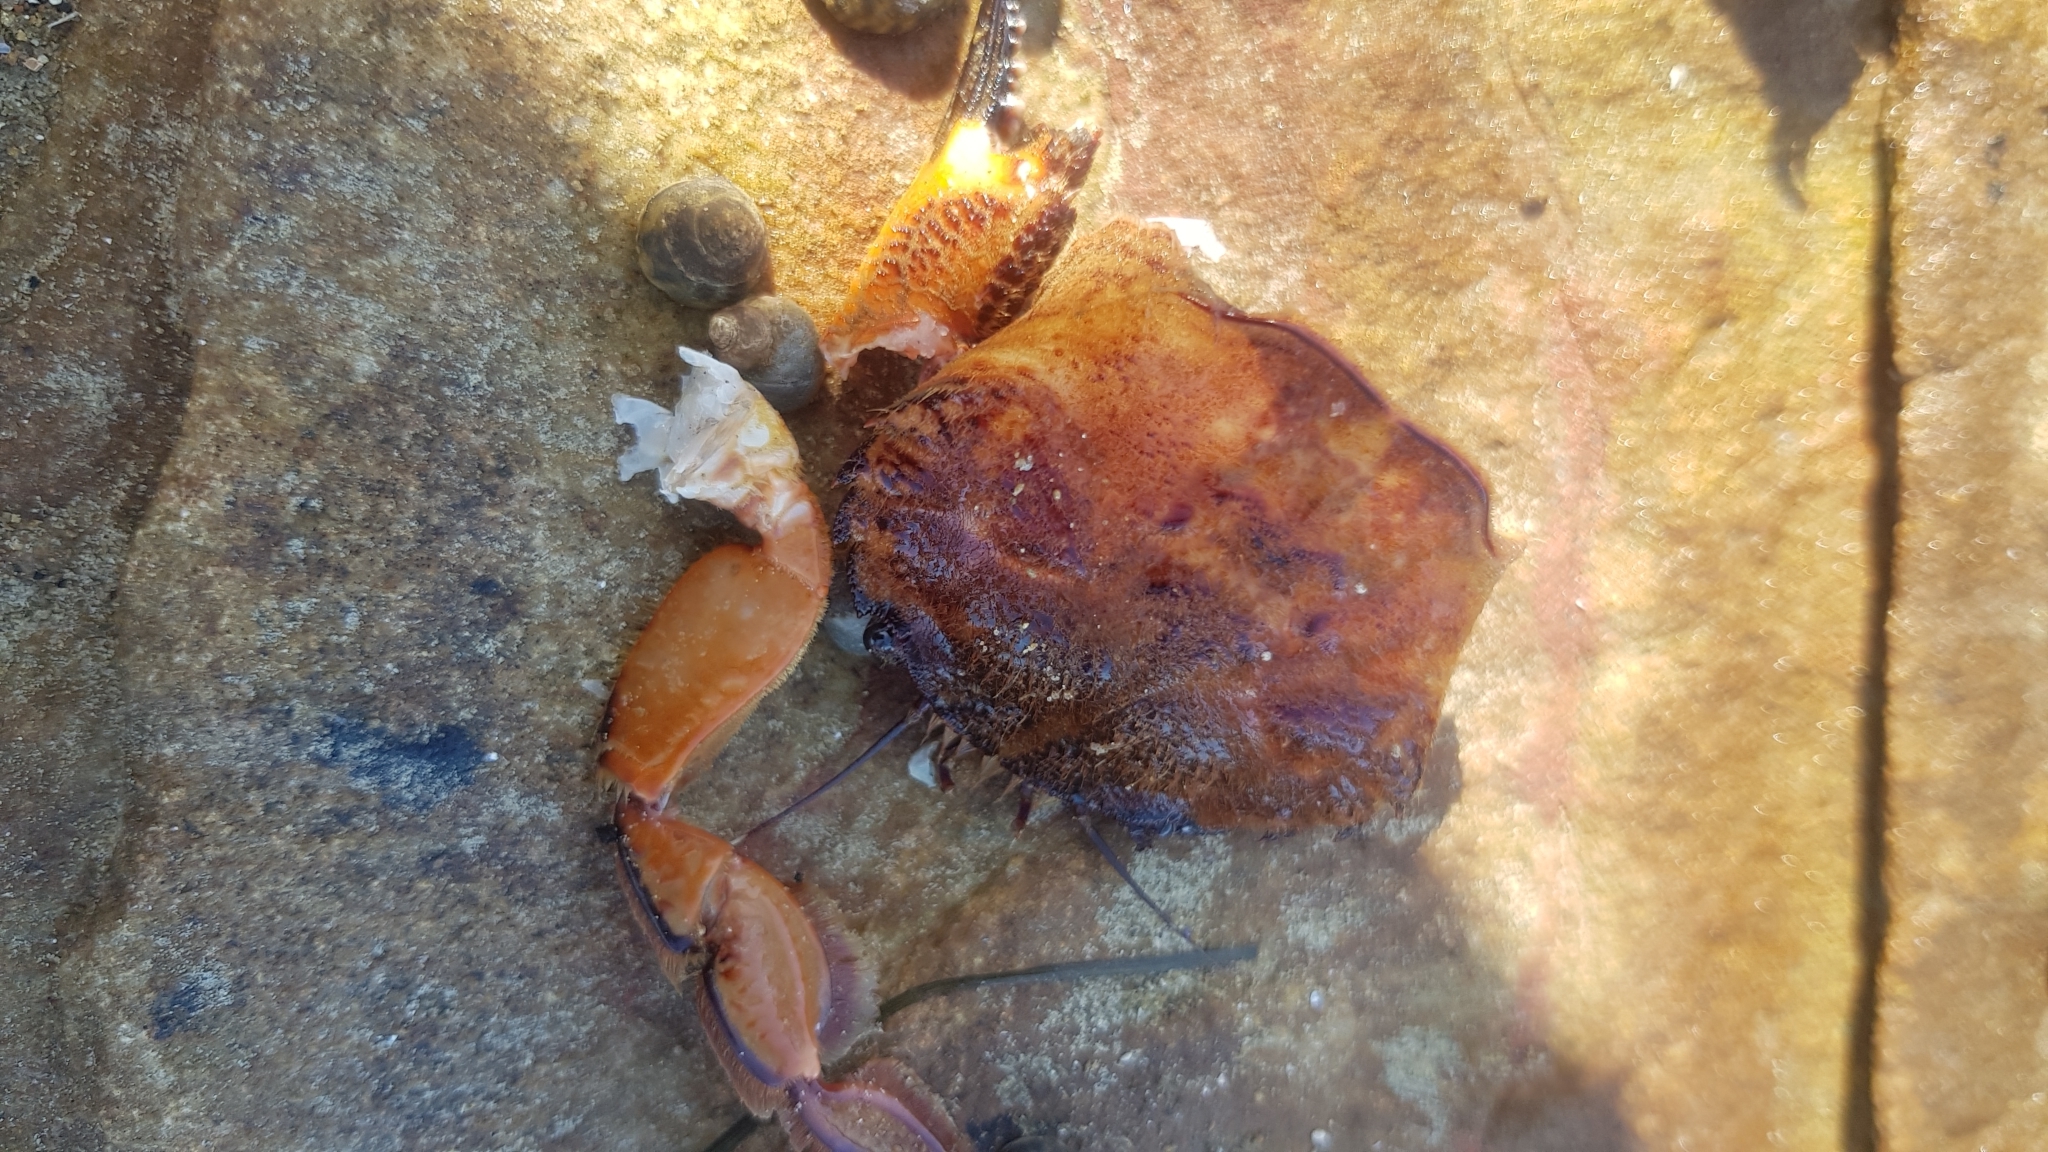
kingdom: Animalia
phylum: Arthropoda
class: Malacostraca
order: Decapoda
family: Geryonidae
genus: Nectocarcinus
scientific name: Nectocarcinus tuberculosus
